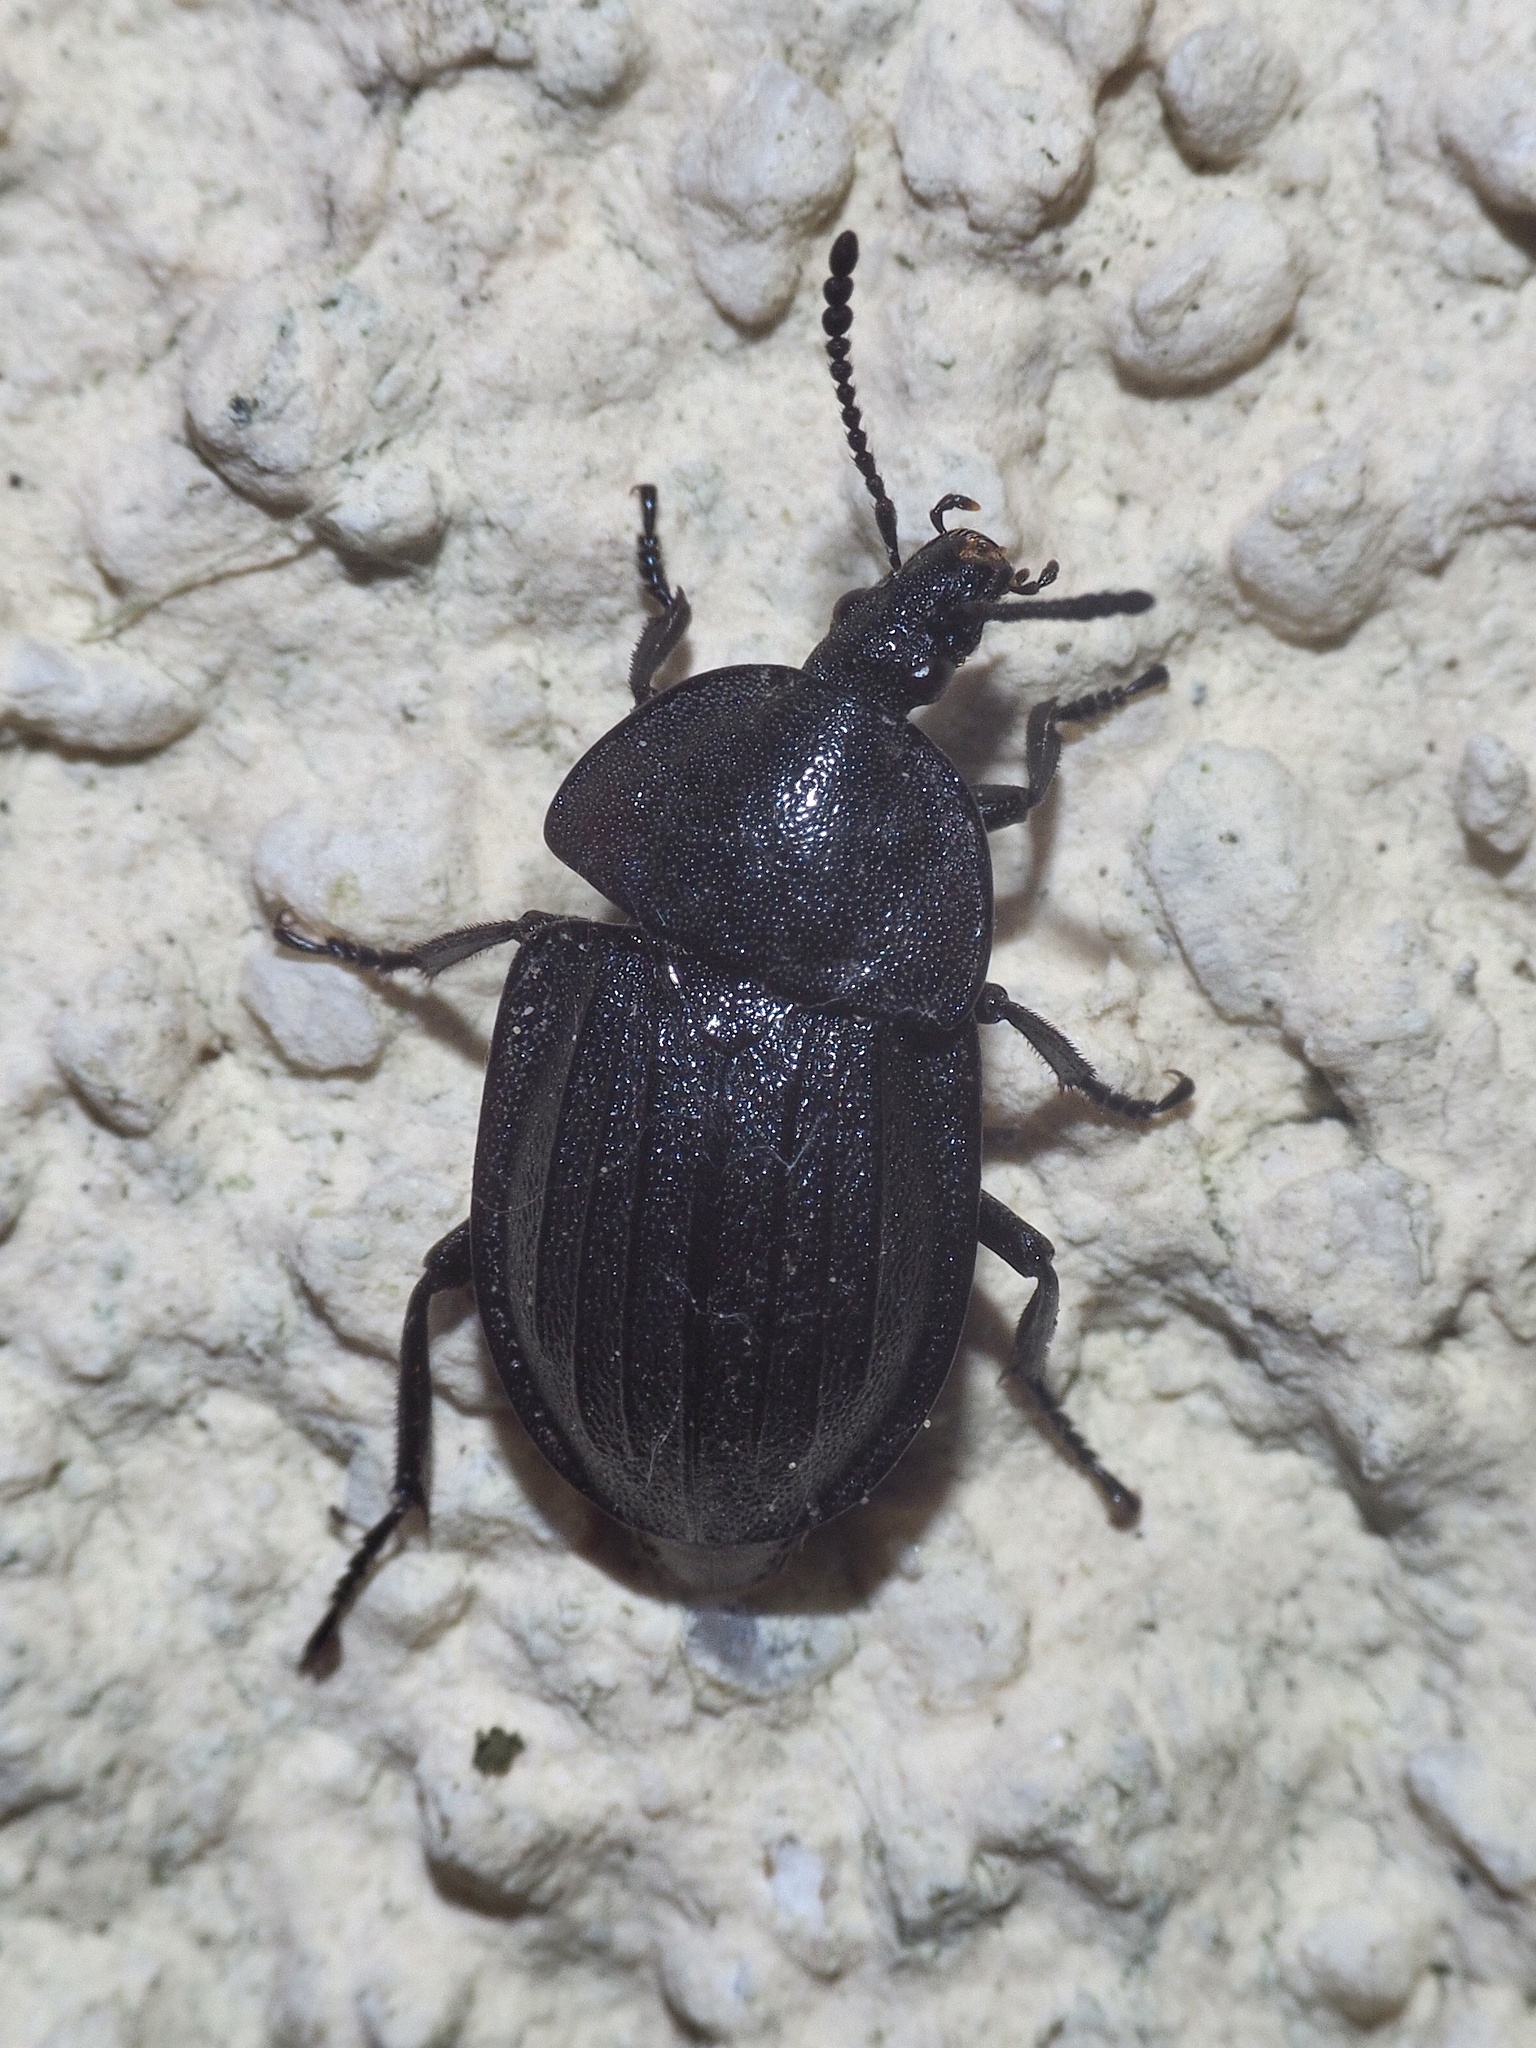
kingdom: Animalia
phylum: Arthropoda
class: Insecta
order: Coleoptera
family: Staphylinidae
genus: Silpha
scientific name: Silpha atrata
